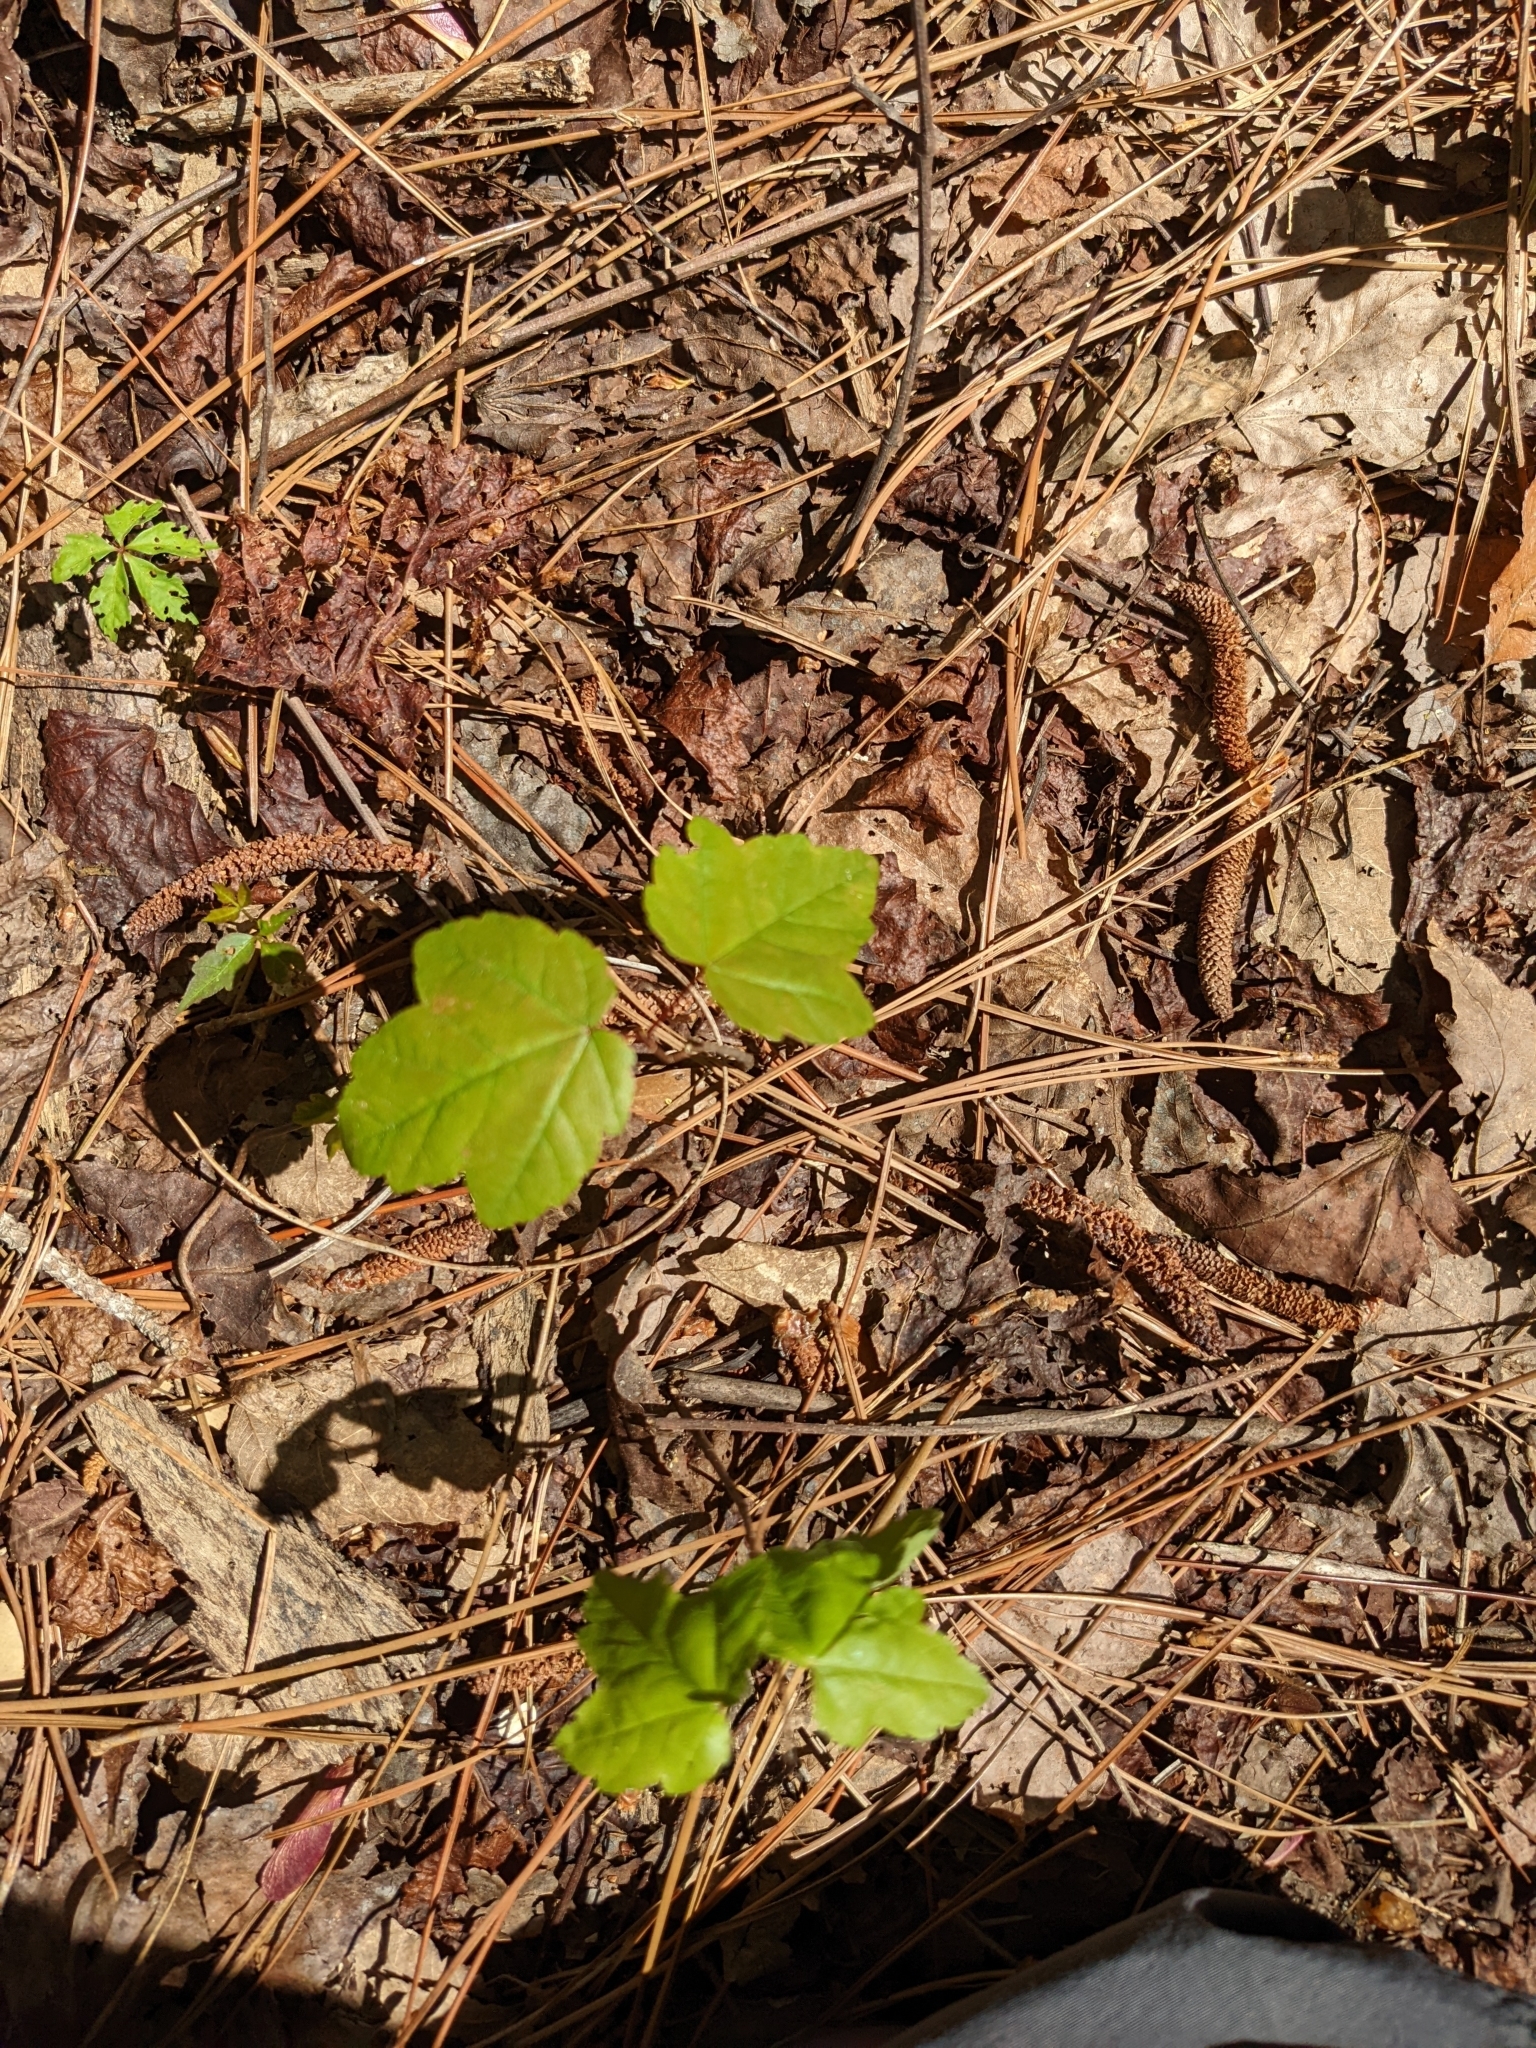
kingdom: Plantae
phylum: Tracheophyta
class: Magnoliopsida
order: Sapindales
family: Sapindaceae
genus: Acer
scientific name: Acer rubrum
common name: Red maple
